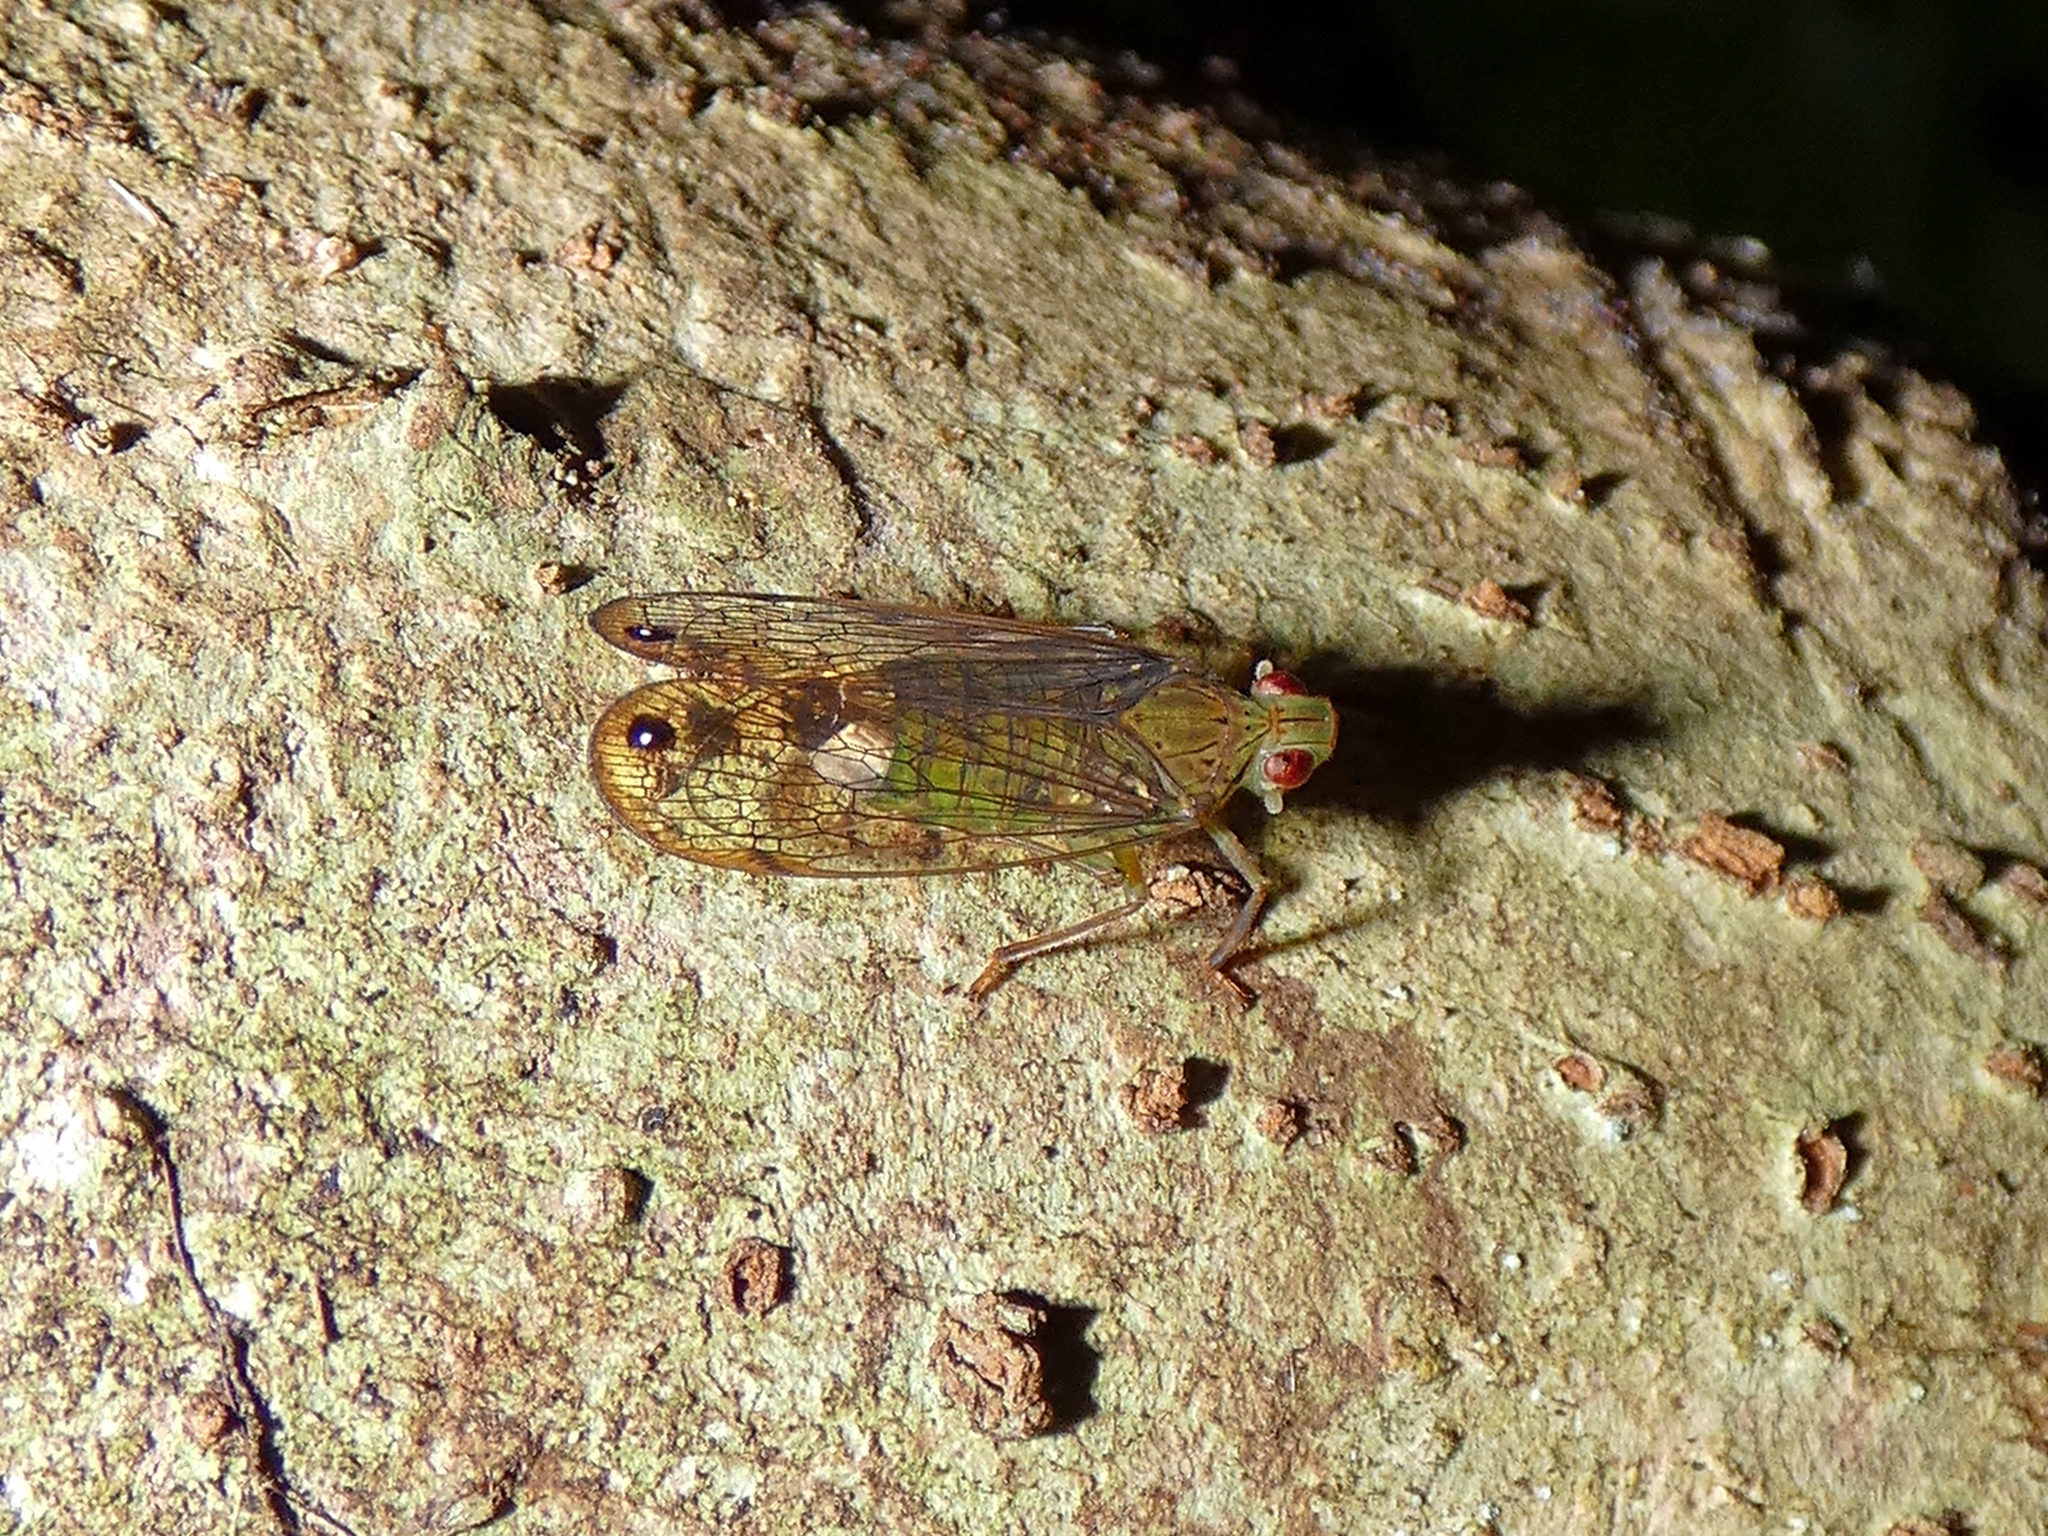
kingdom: Animalia
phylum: Arthropoda
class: Insecta
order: Hemiptera
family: Lophopidae
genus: Magia
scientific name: Magia stuarti
